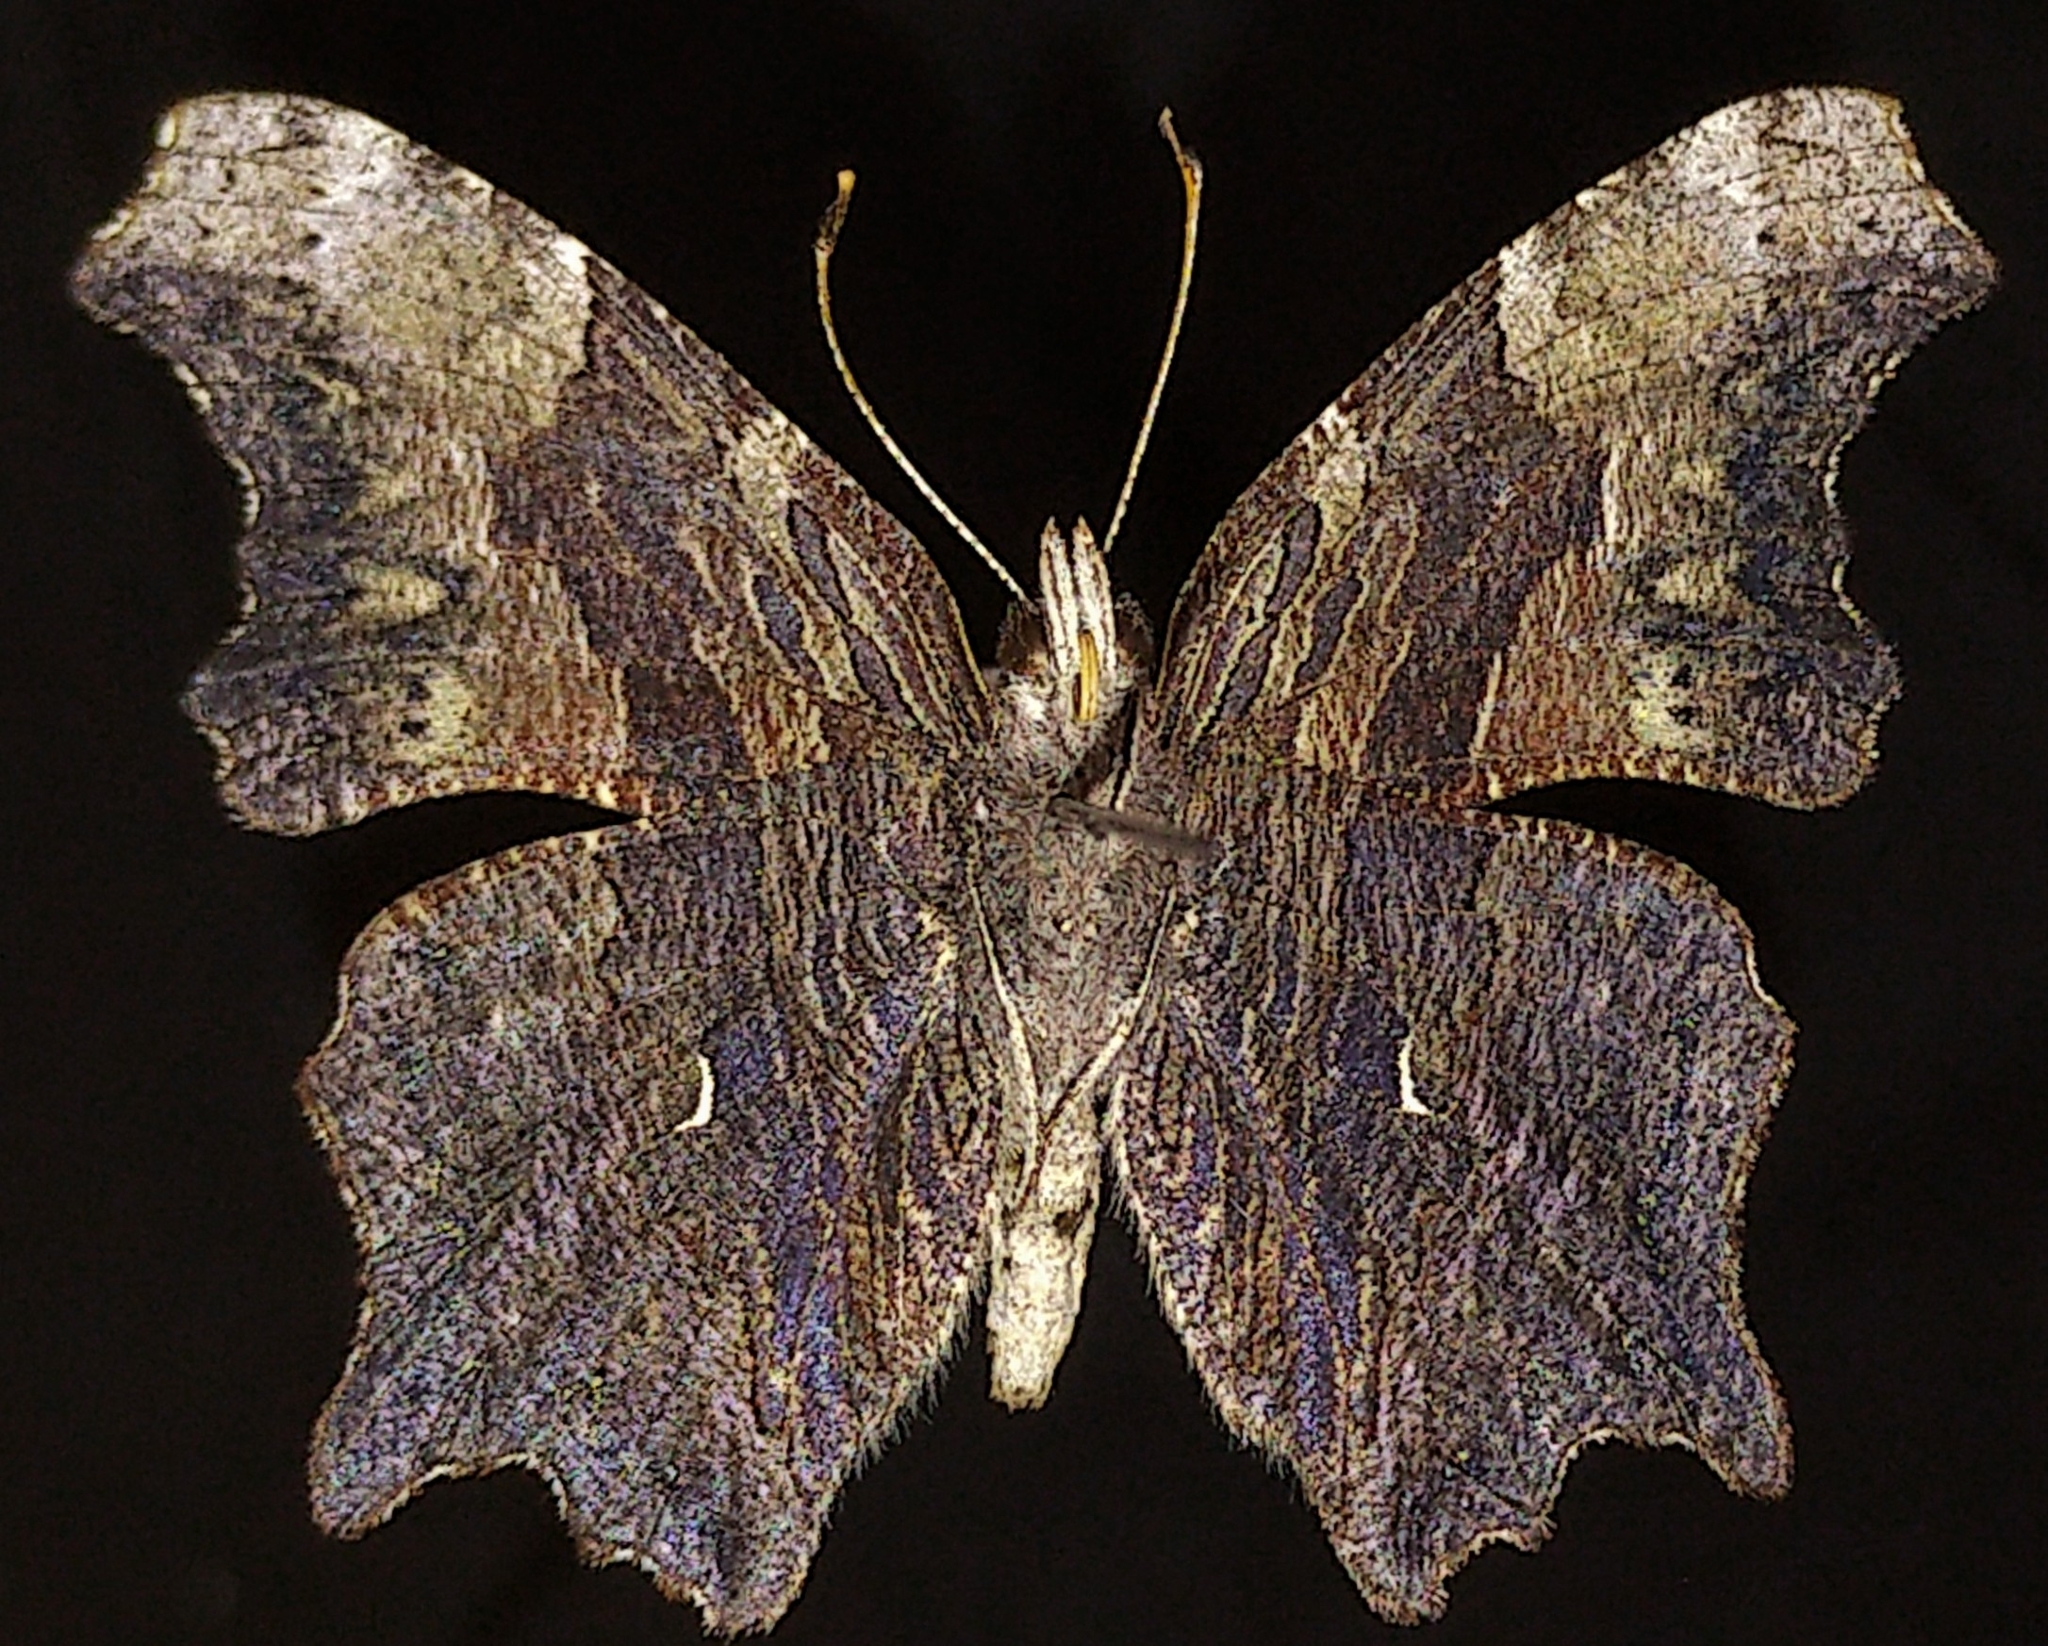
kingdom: Animalia
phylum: Arthropoda
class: Insecta
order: Lepidoptera
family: Nymphalidae
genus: Polygonia
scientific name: Polygonia progne
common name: Gray comma
